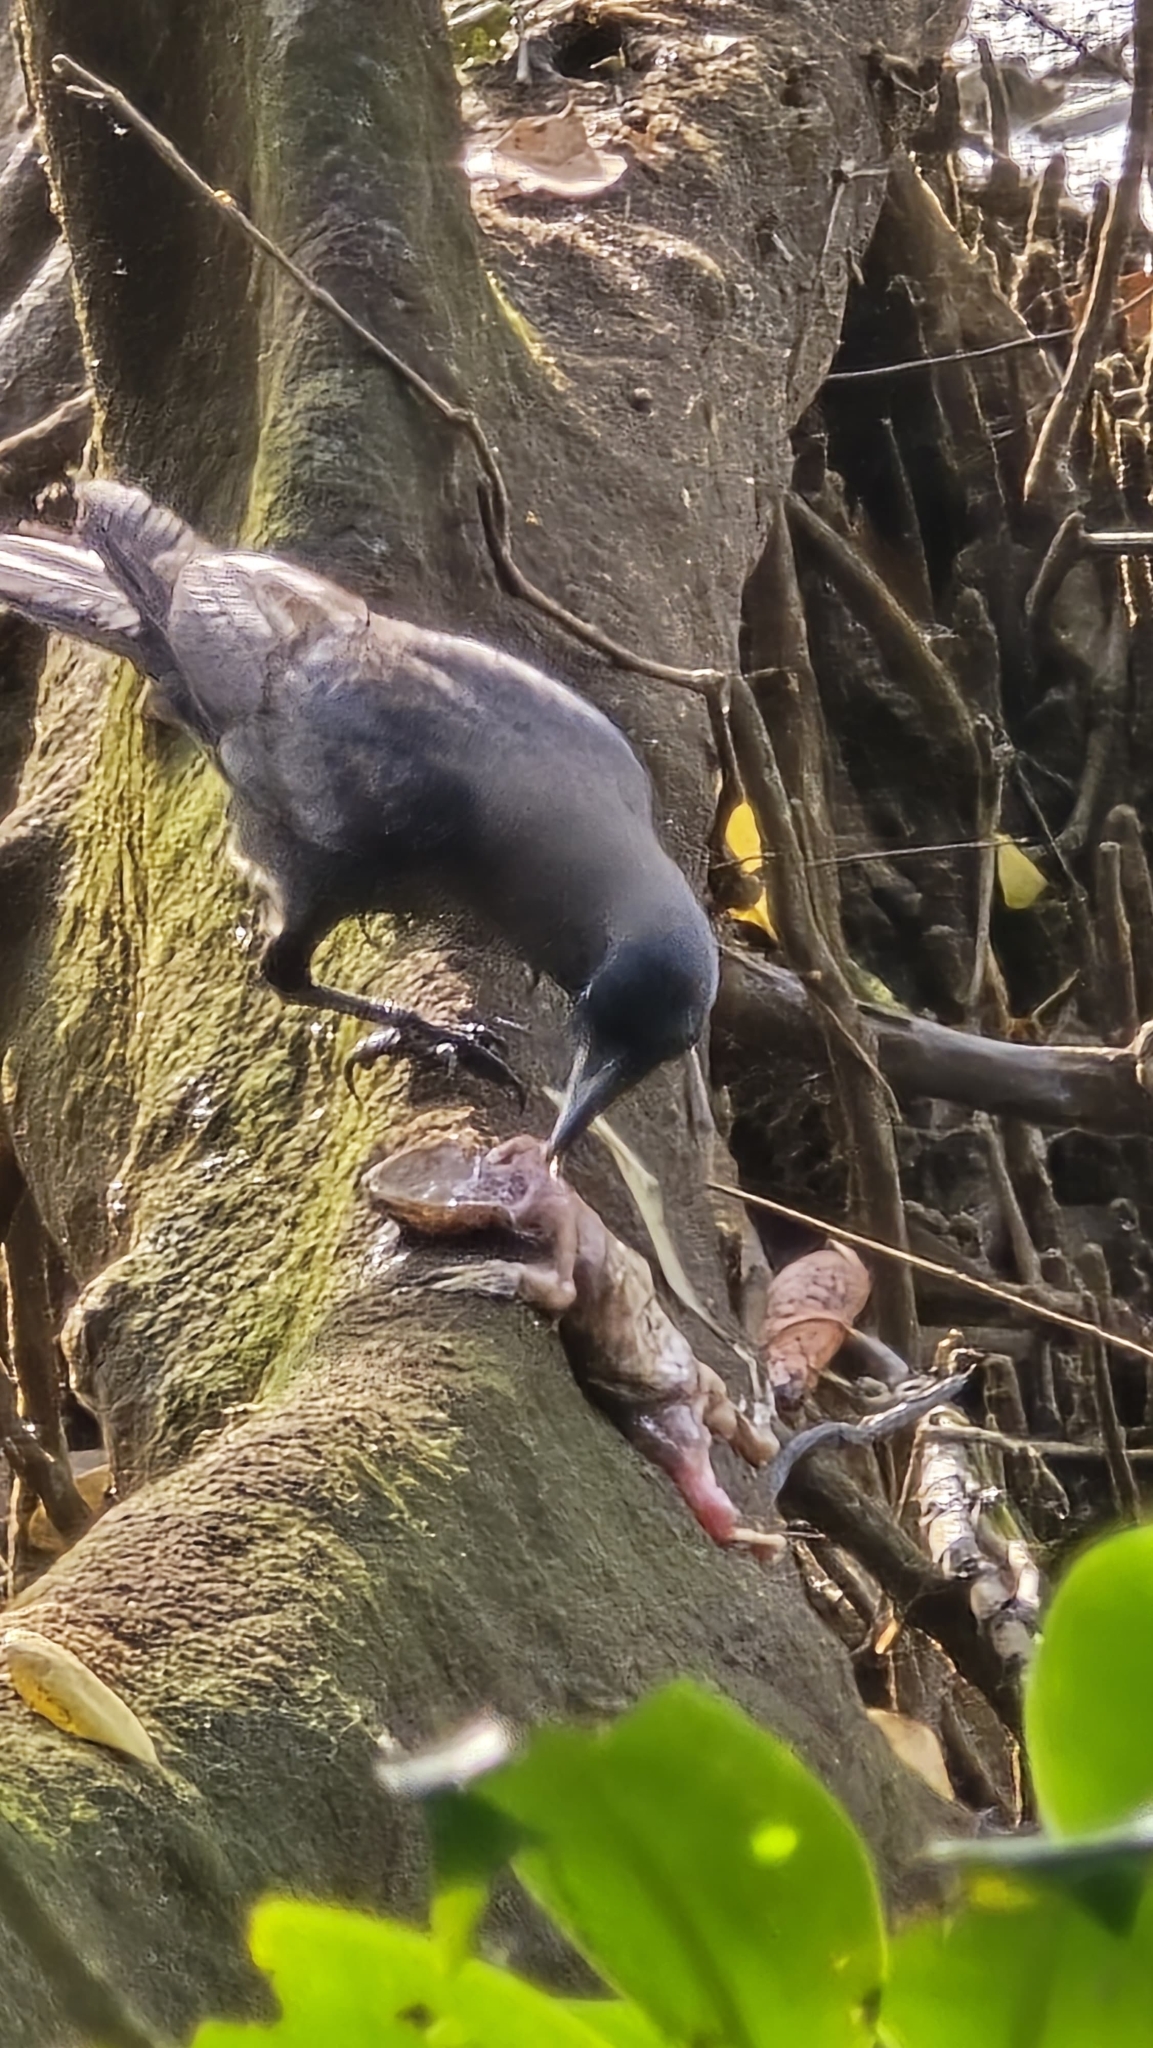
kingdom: Animalia
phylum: Chordata
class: Aves
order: Passeriformes
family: Corvidae
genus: Corvus
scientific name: Corvus splendens
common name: House crow
